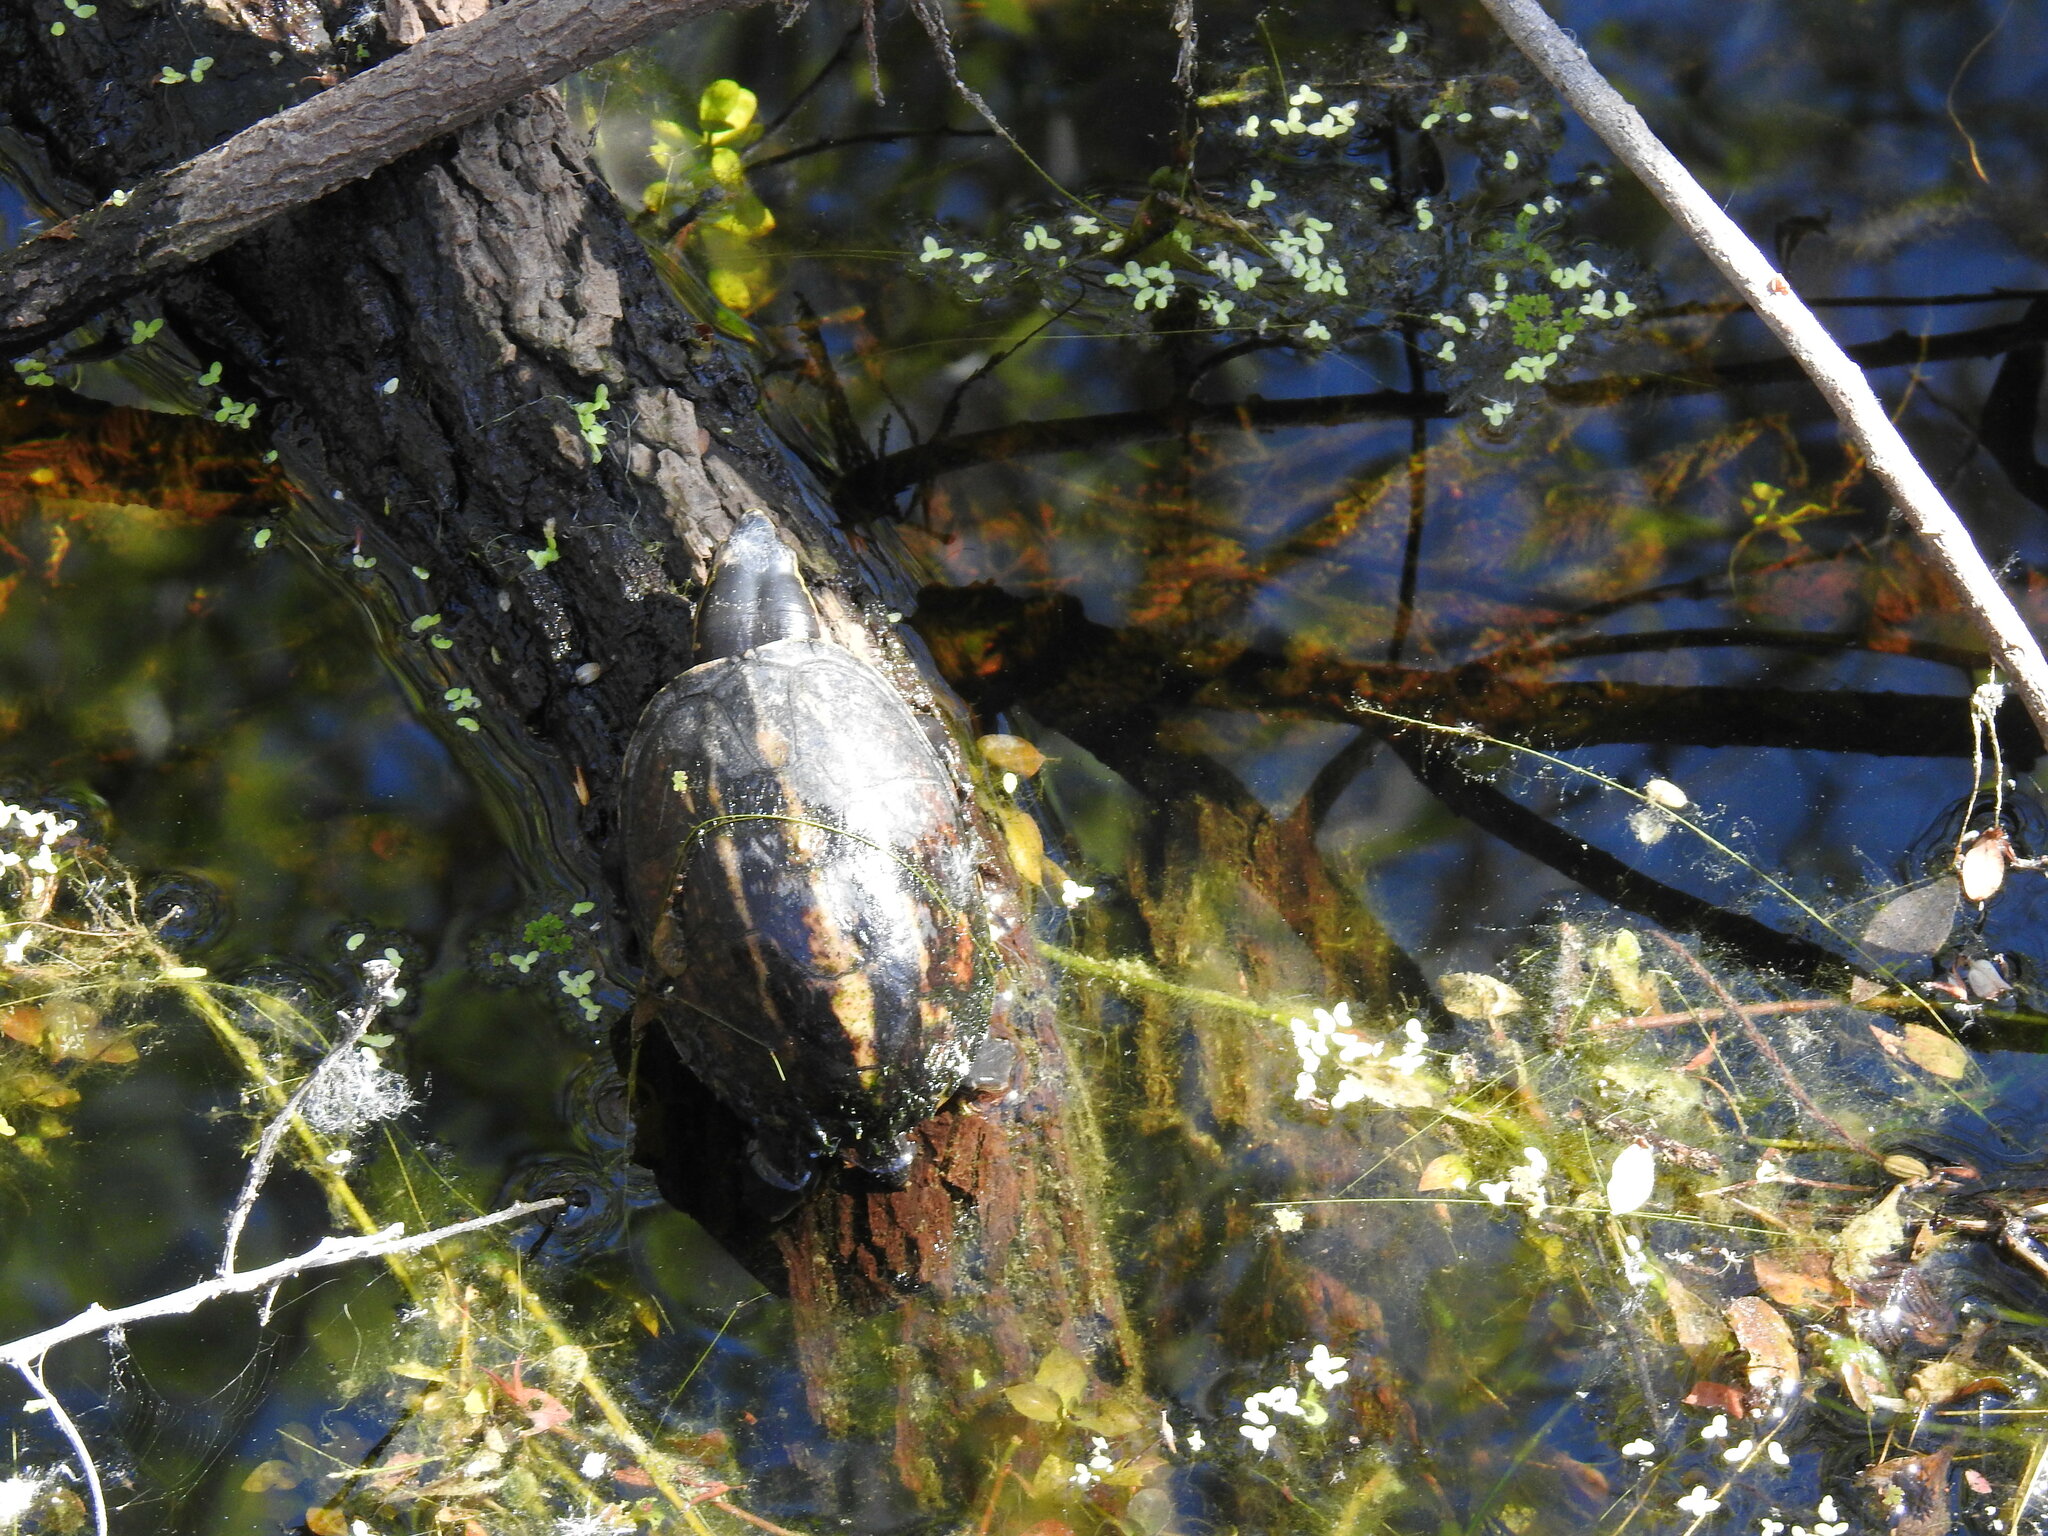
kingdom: Animalia
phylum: Chordata
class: Testudines
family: Kinosternidae
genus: Kinosternon
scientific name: Kinosternon baurii
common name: Striped mud turtle
